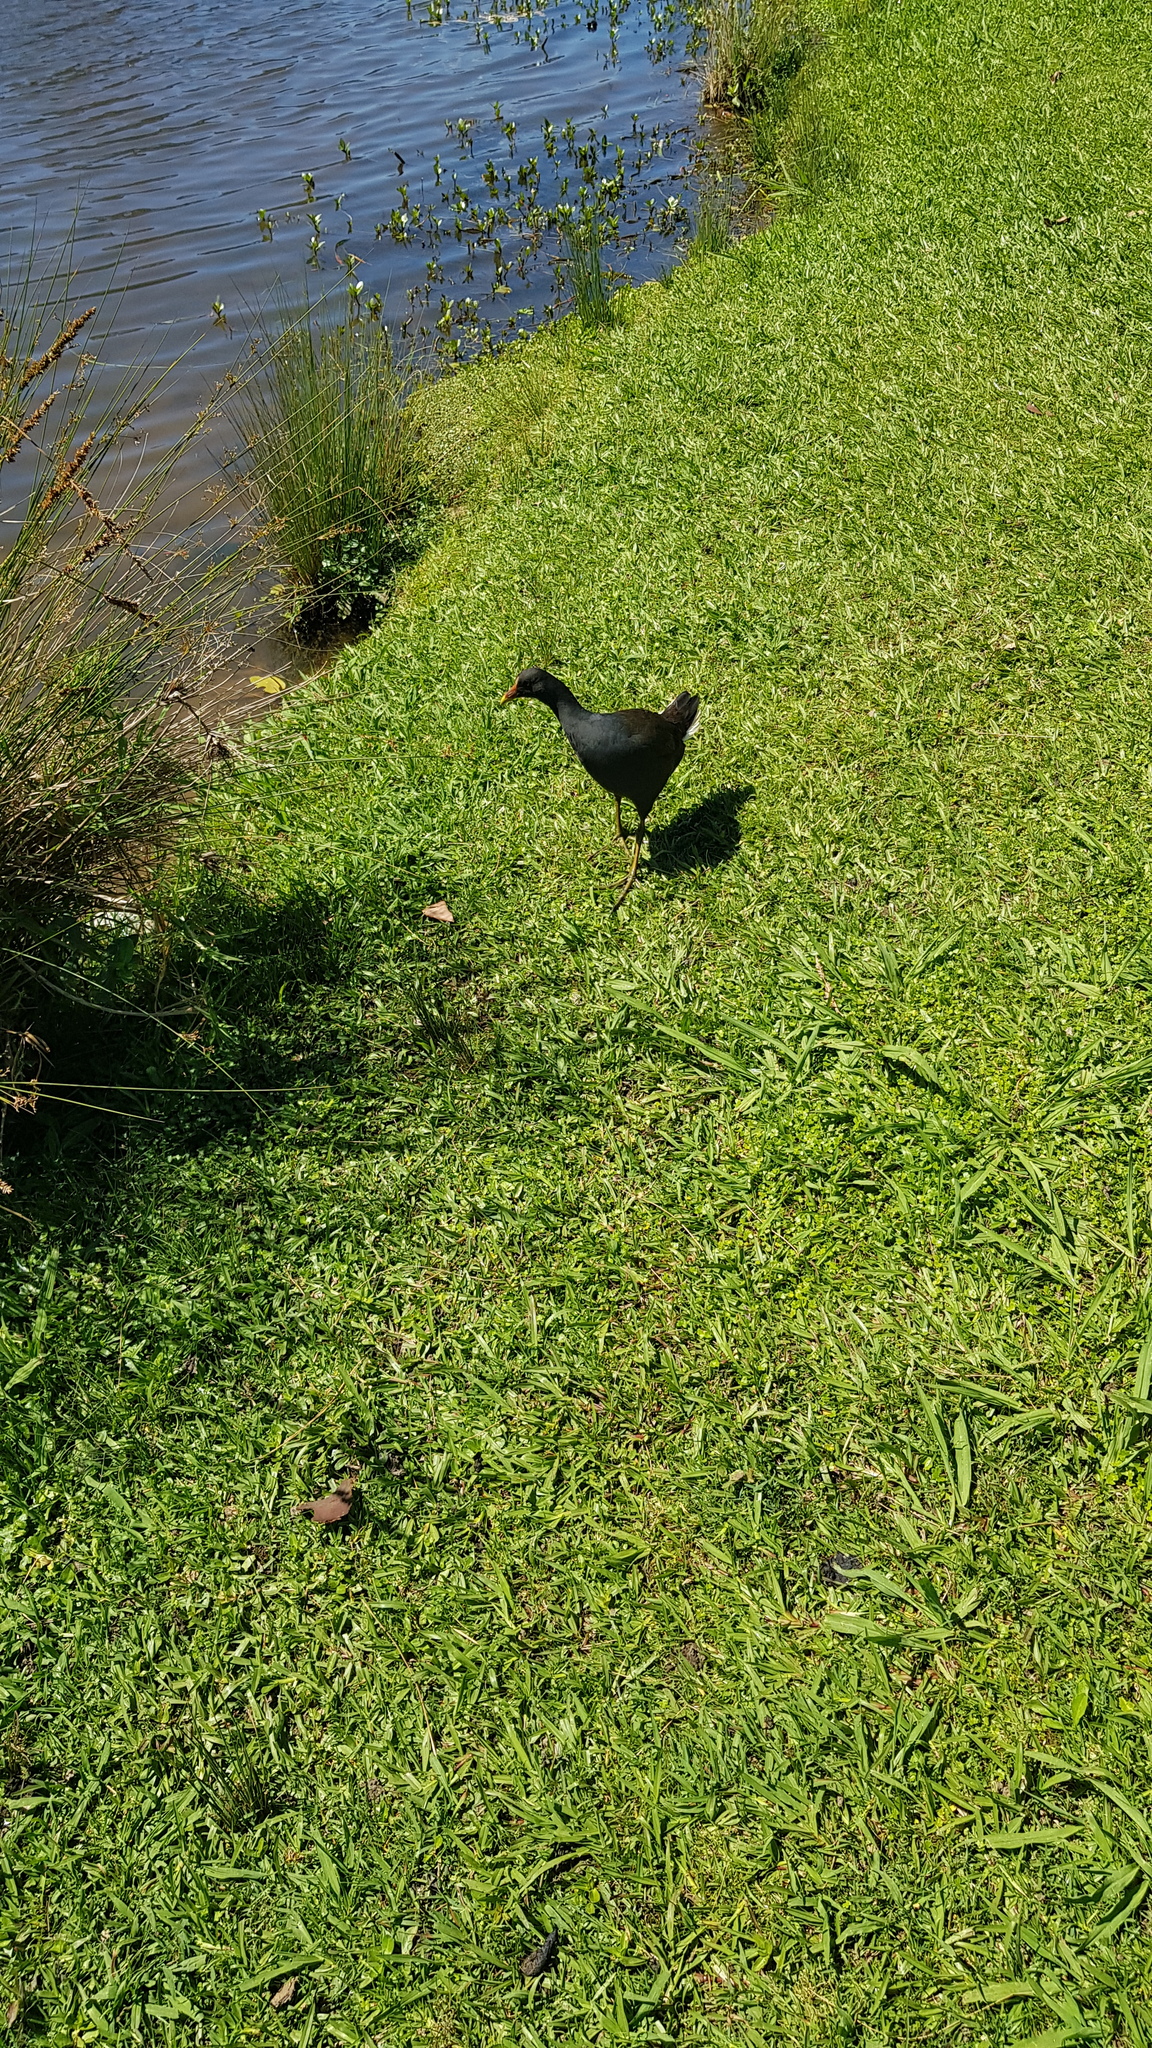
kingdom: Animalia
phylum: Chordata
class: Aves
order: Gruiformes
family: Rallidae
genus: Gallinula
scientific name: Gallinula tenebrosa
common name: Dusky moorhen
